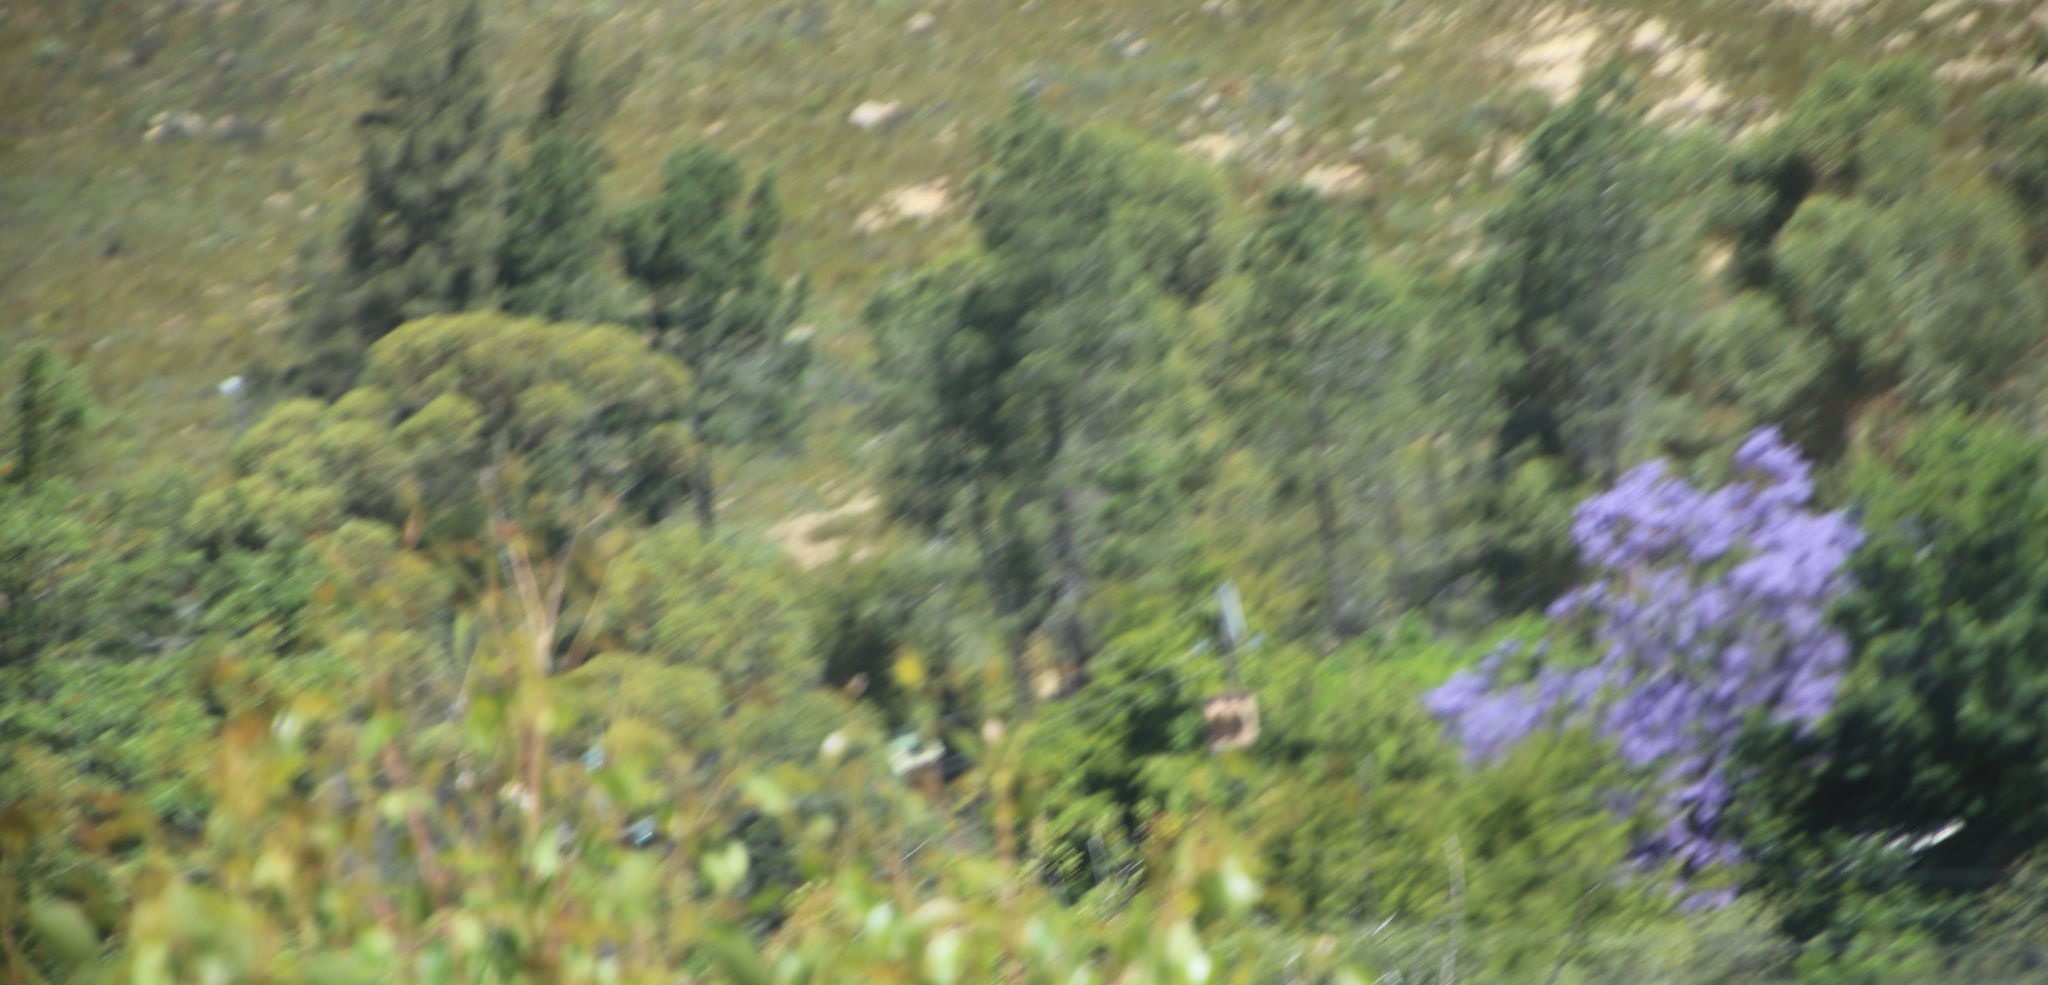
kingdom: Plantae
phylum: Tracheophyta
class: Magnoliopsida
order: Lamiales
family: Bignoniaceae
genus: Jacaranda
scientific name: Jacaranda mimosifolia
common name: Black poui
